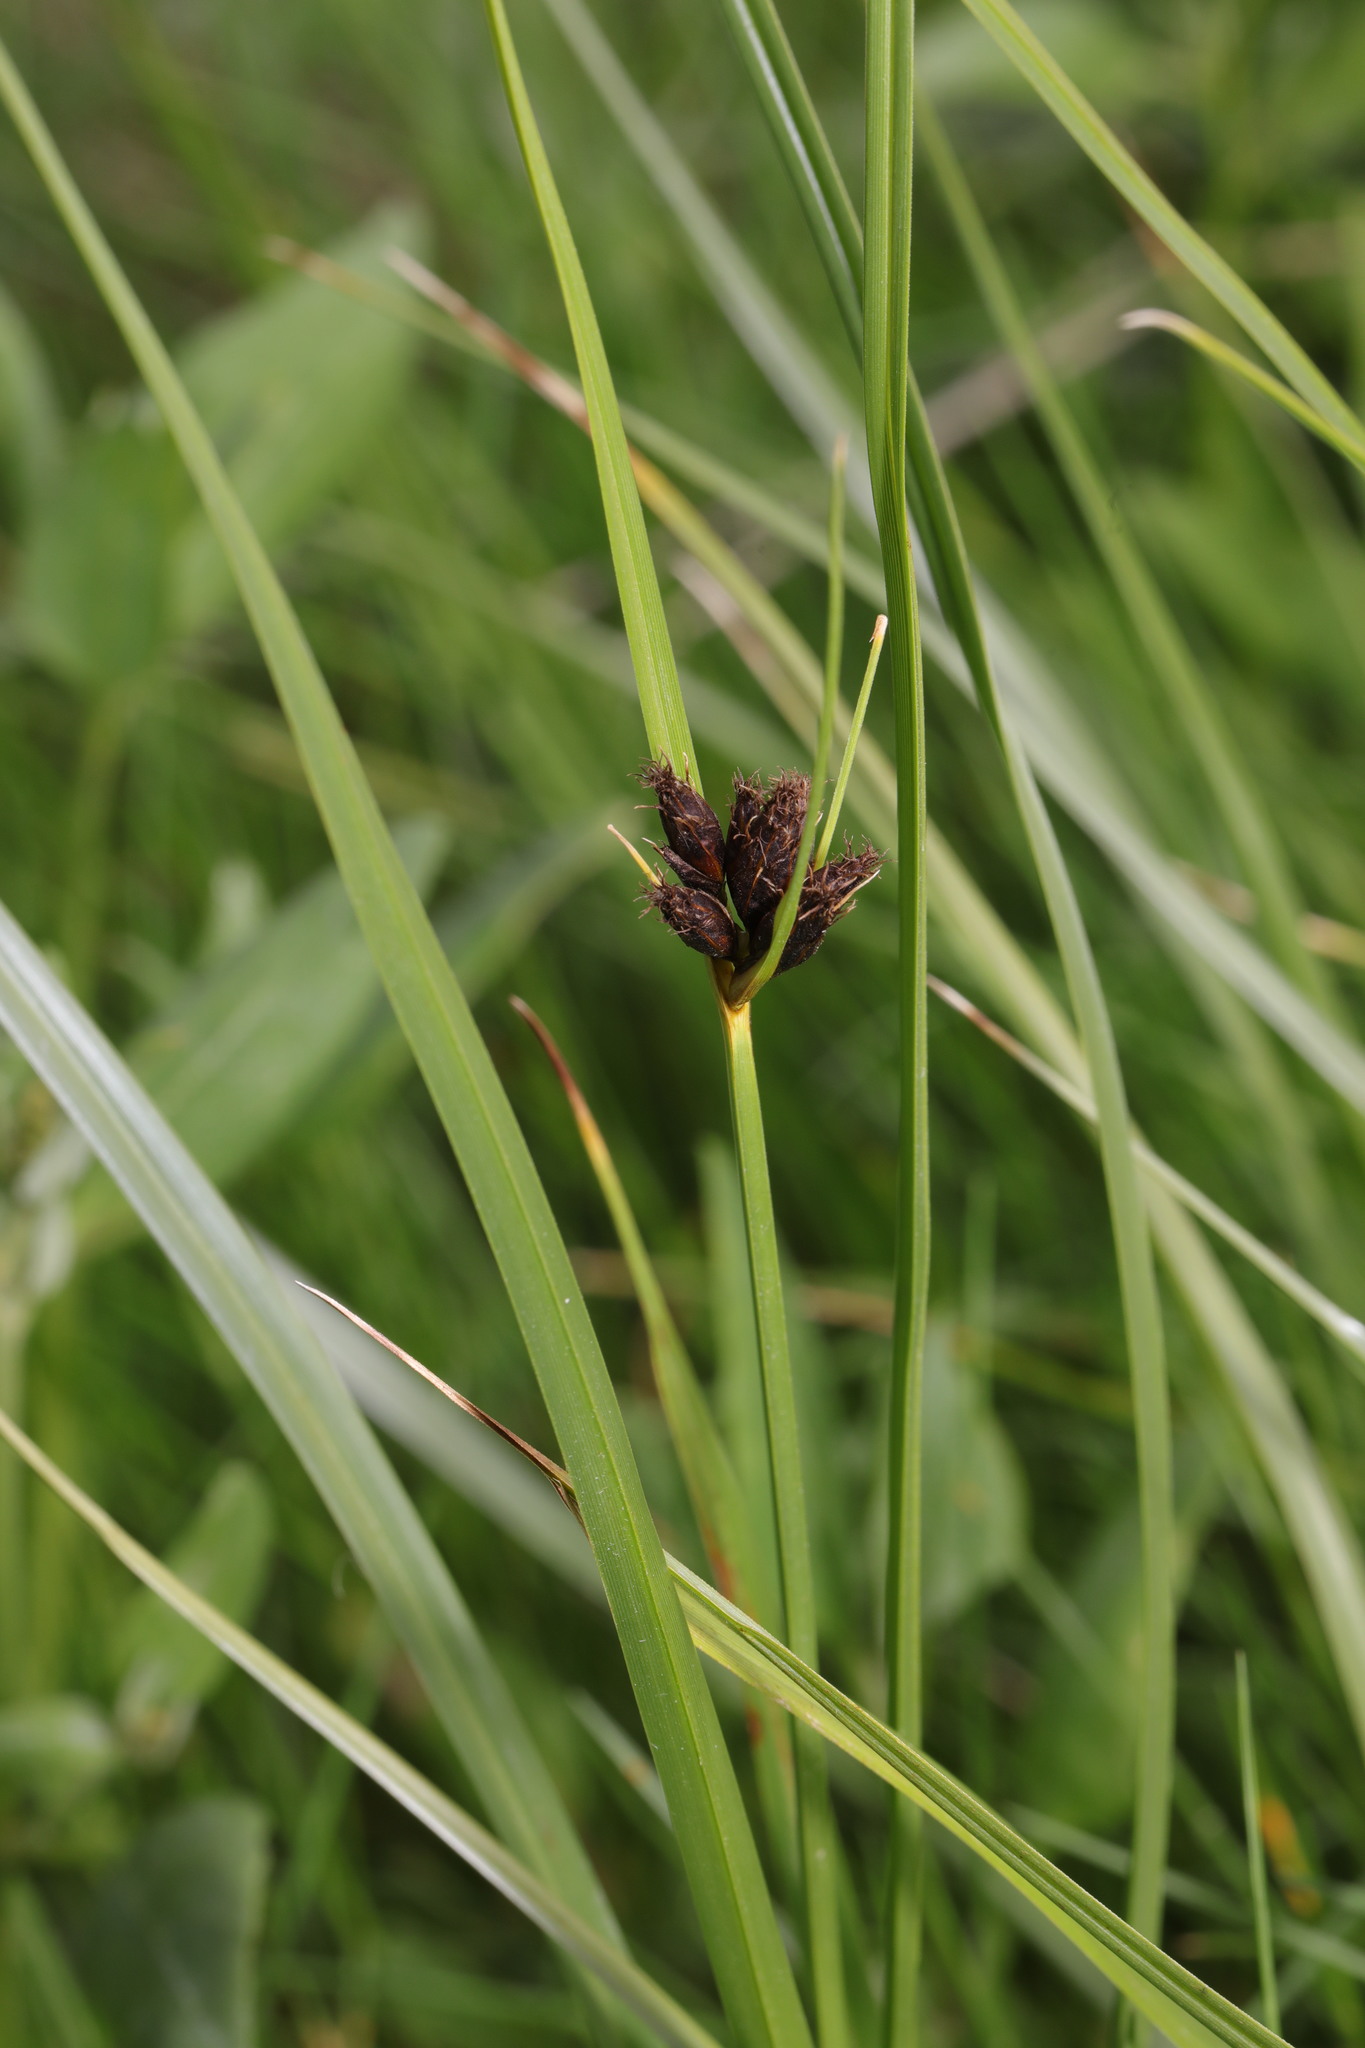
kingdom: Plantae
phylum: Tracheophyta
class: Liliopsida
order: Poales
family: Cyperaceae
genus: Bolboschoenus
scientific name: Bolboschoenus maritimus
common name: Sea club-rush
